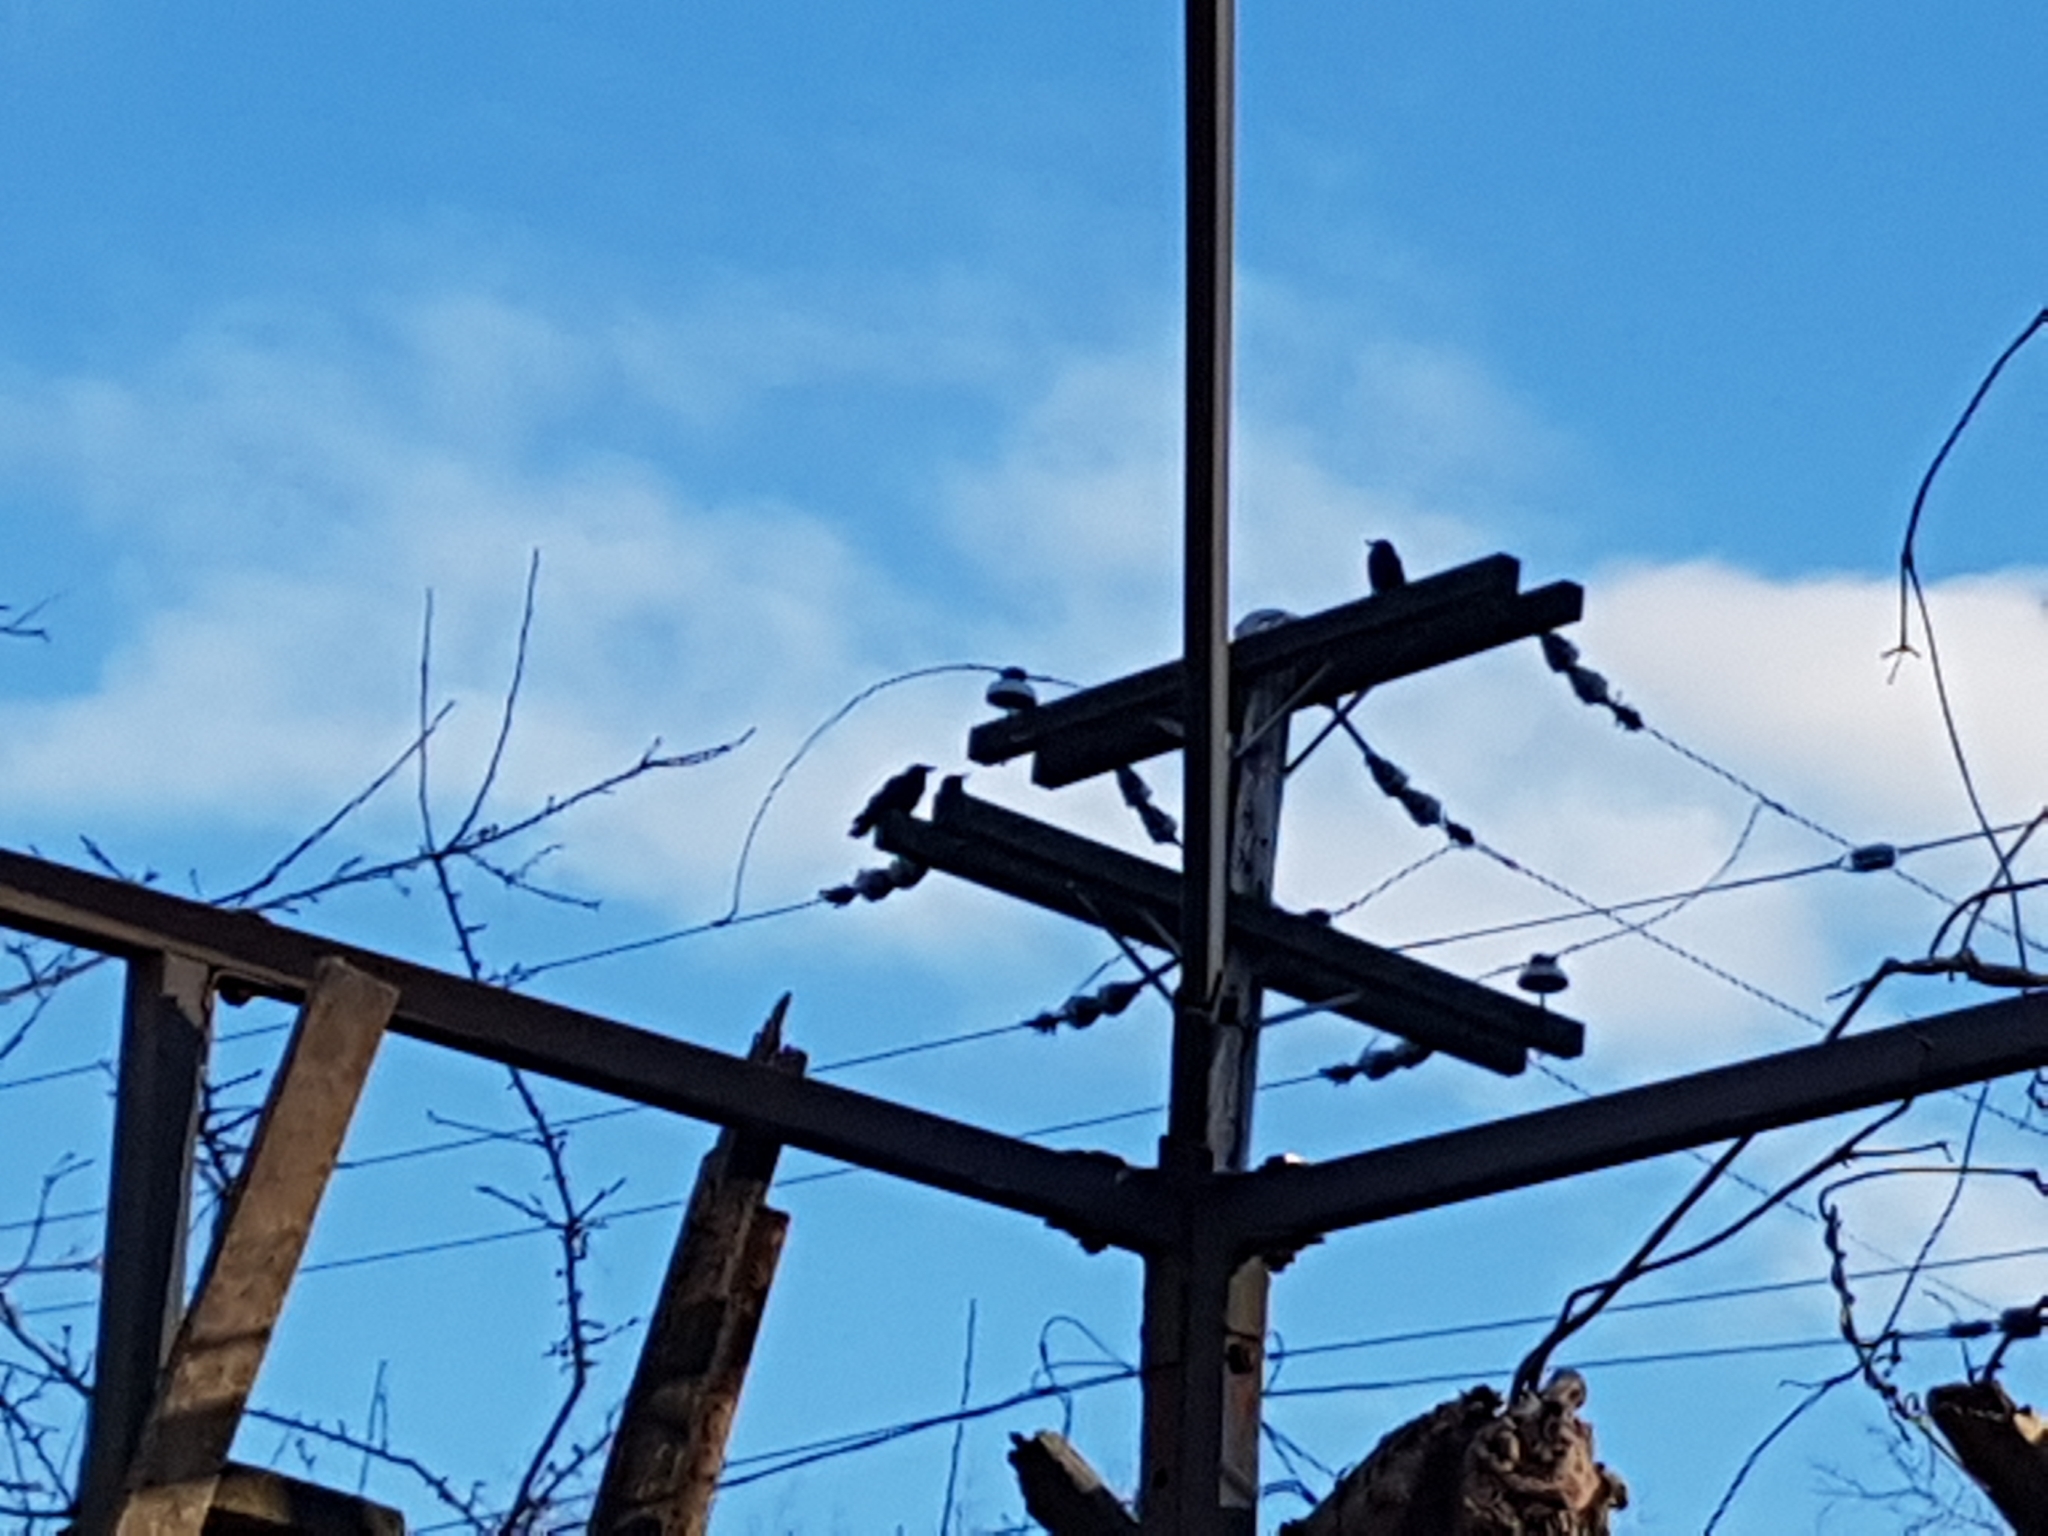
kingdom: Animalia
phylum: Chordata
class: Aves
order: Passeriformes
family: Corvidae
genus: Corvus
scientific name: Corvus brachyrhynchos
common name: American crow
